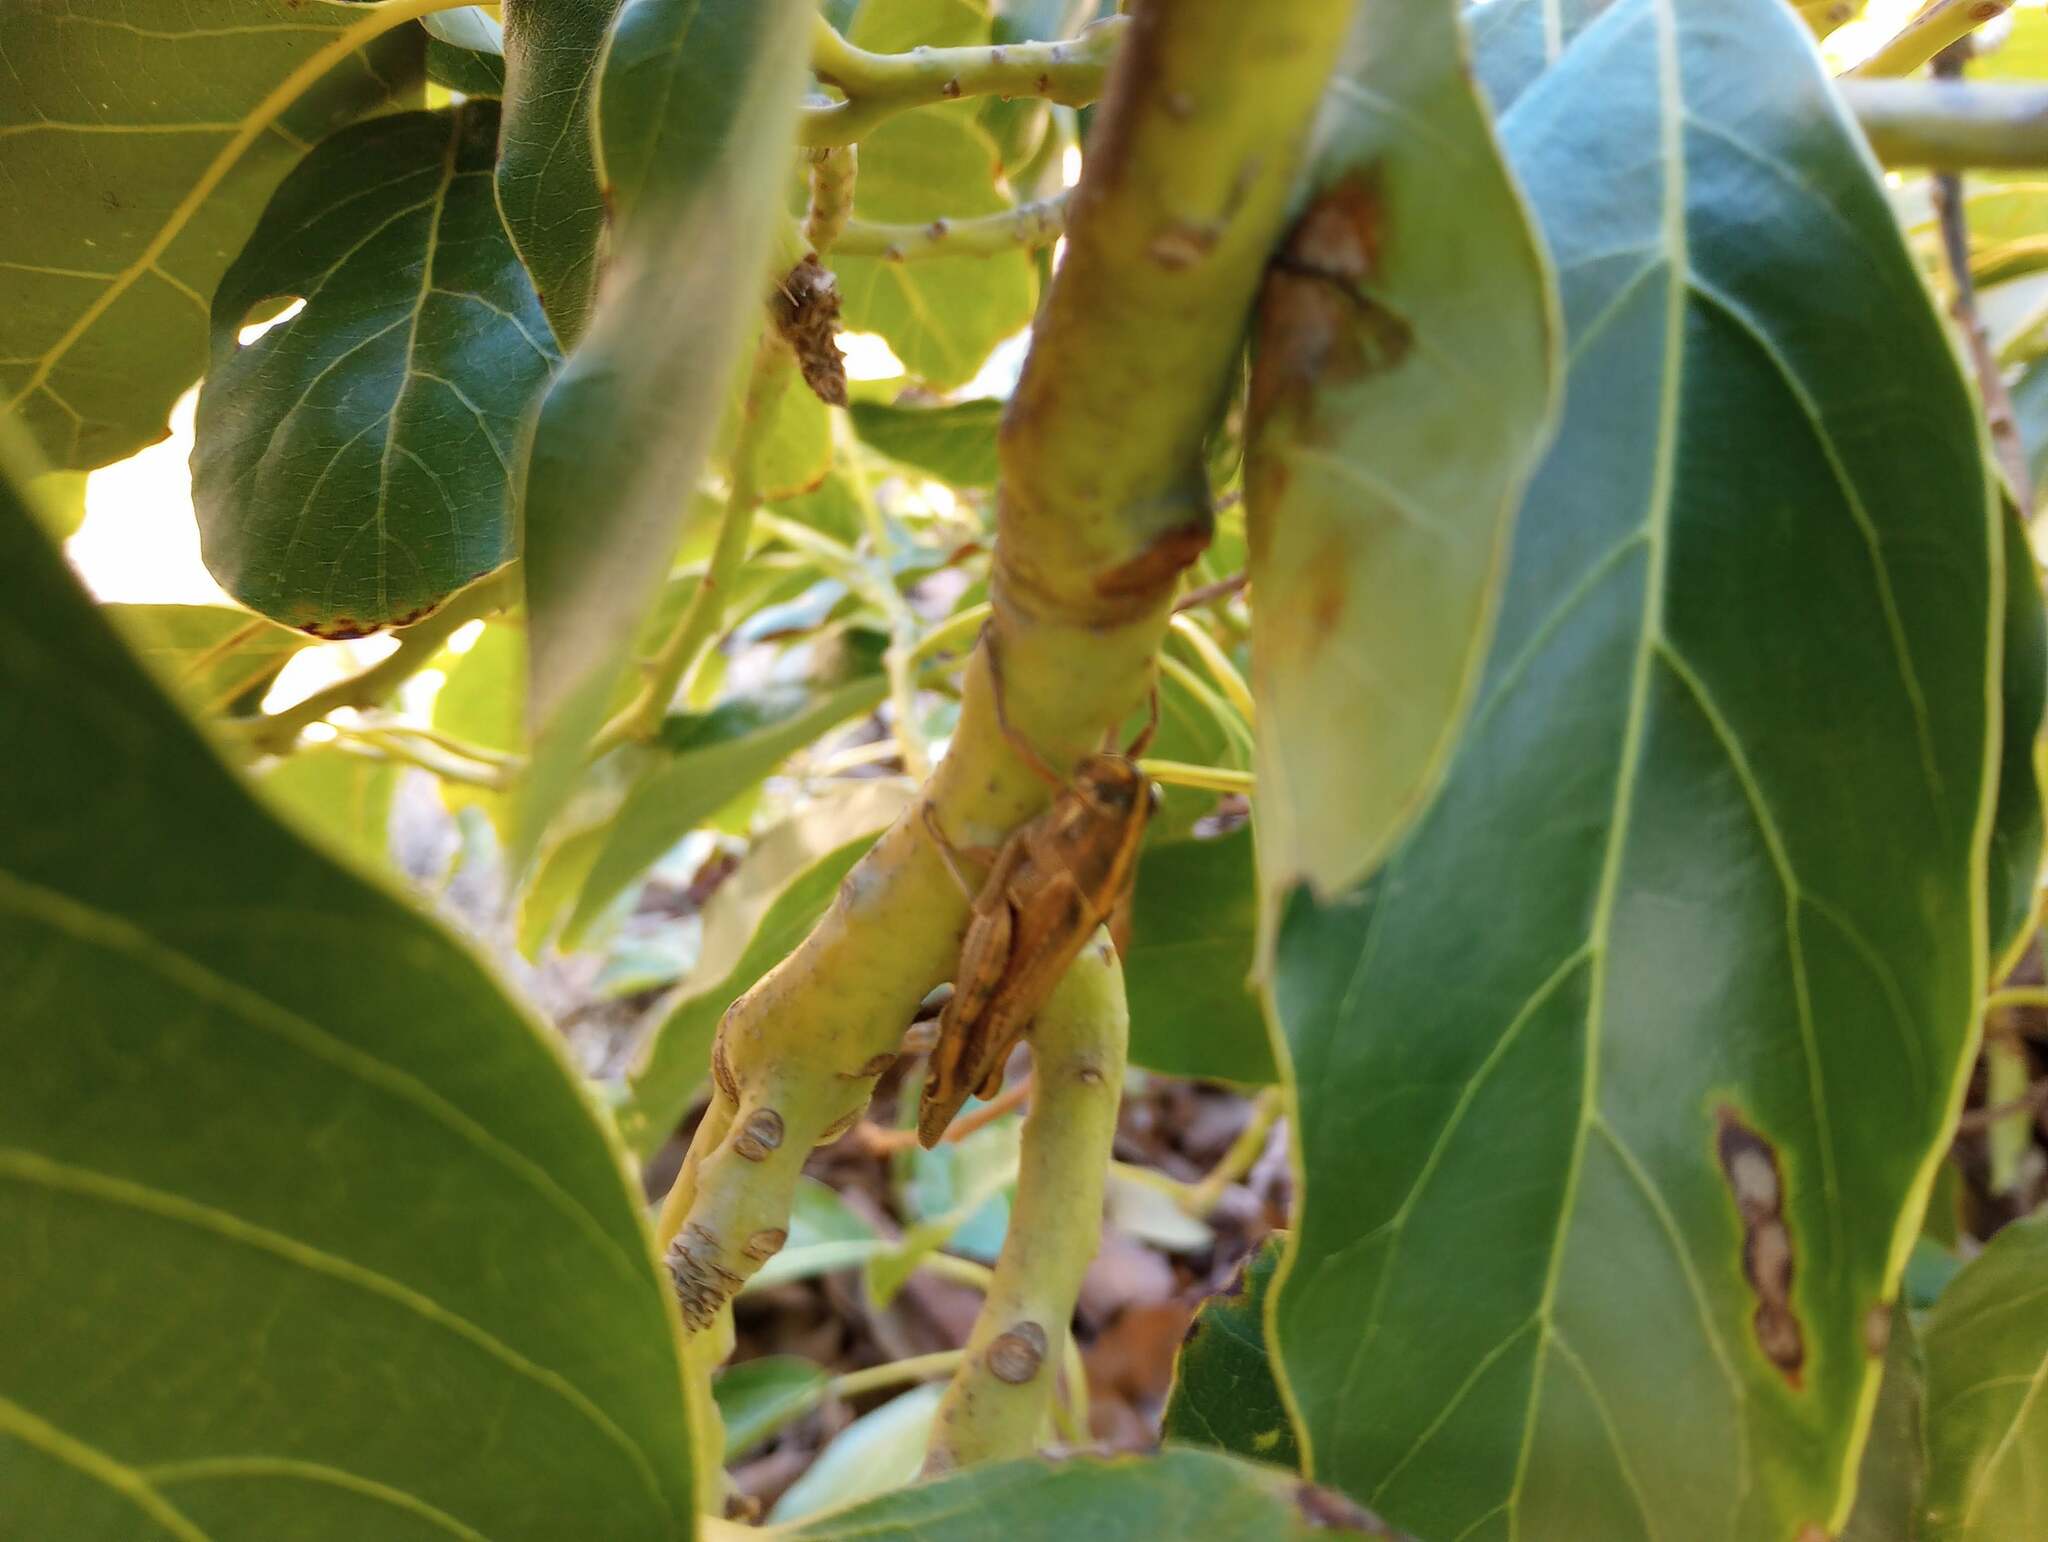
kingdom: Animalia
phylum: Arthropoda
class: Insecta
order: Orthoptera
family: Acrididae
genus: Schistocerca
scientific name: Schistocerca nitens
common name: Vagrant grasshopper
